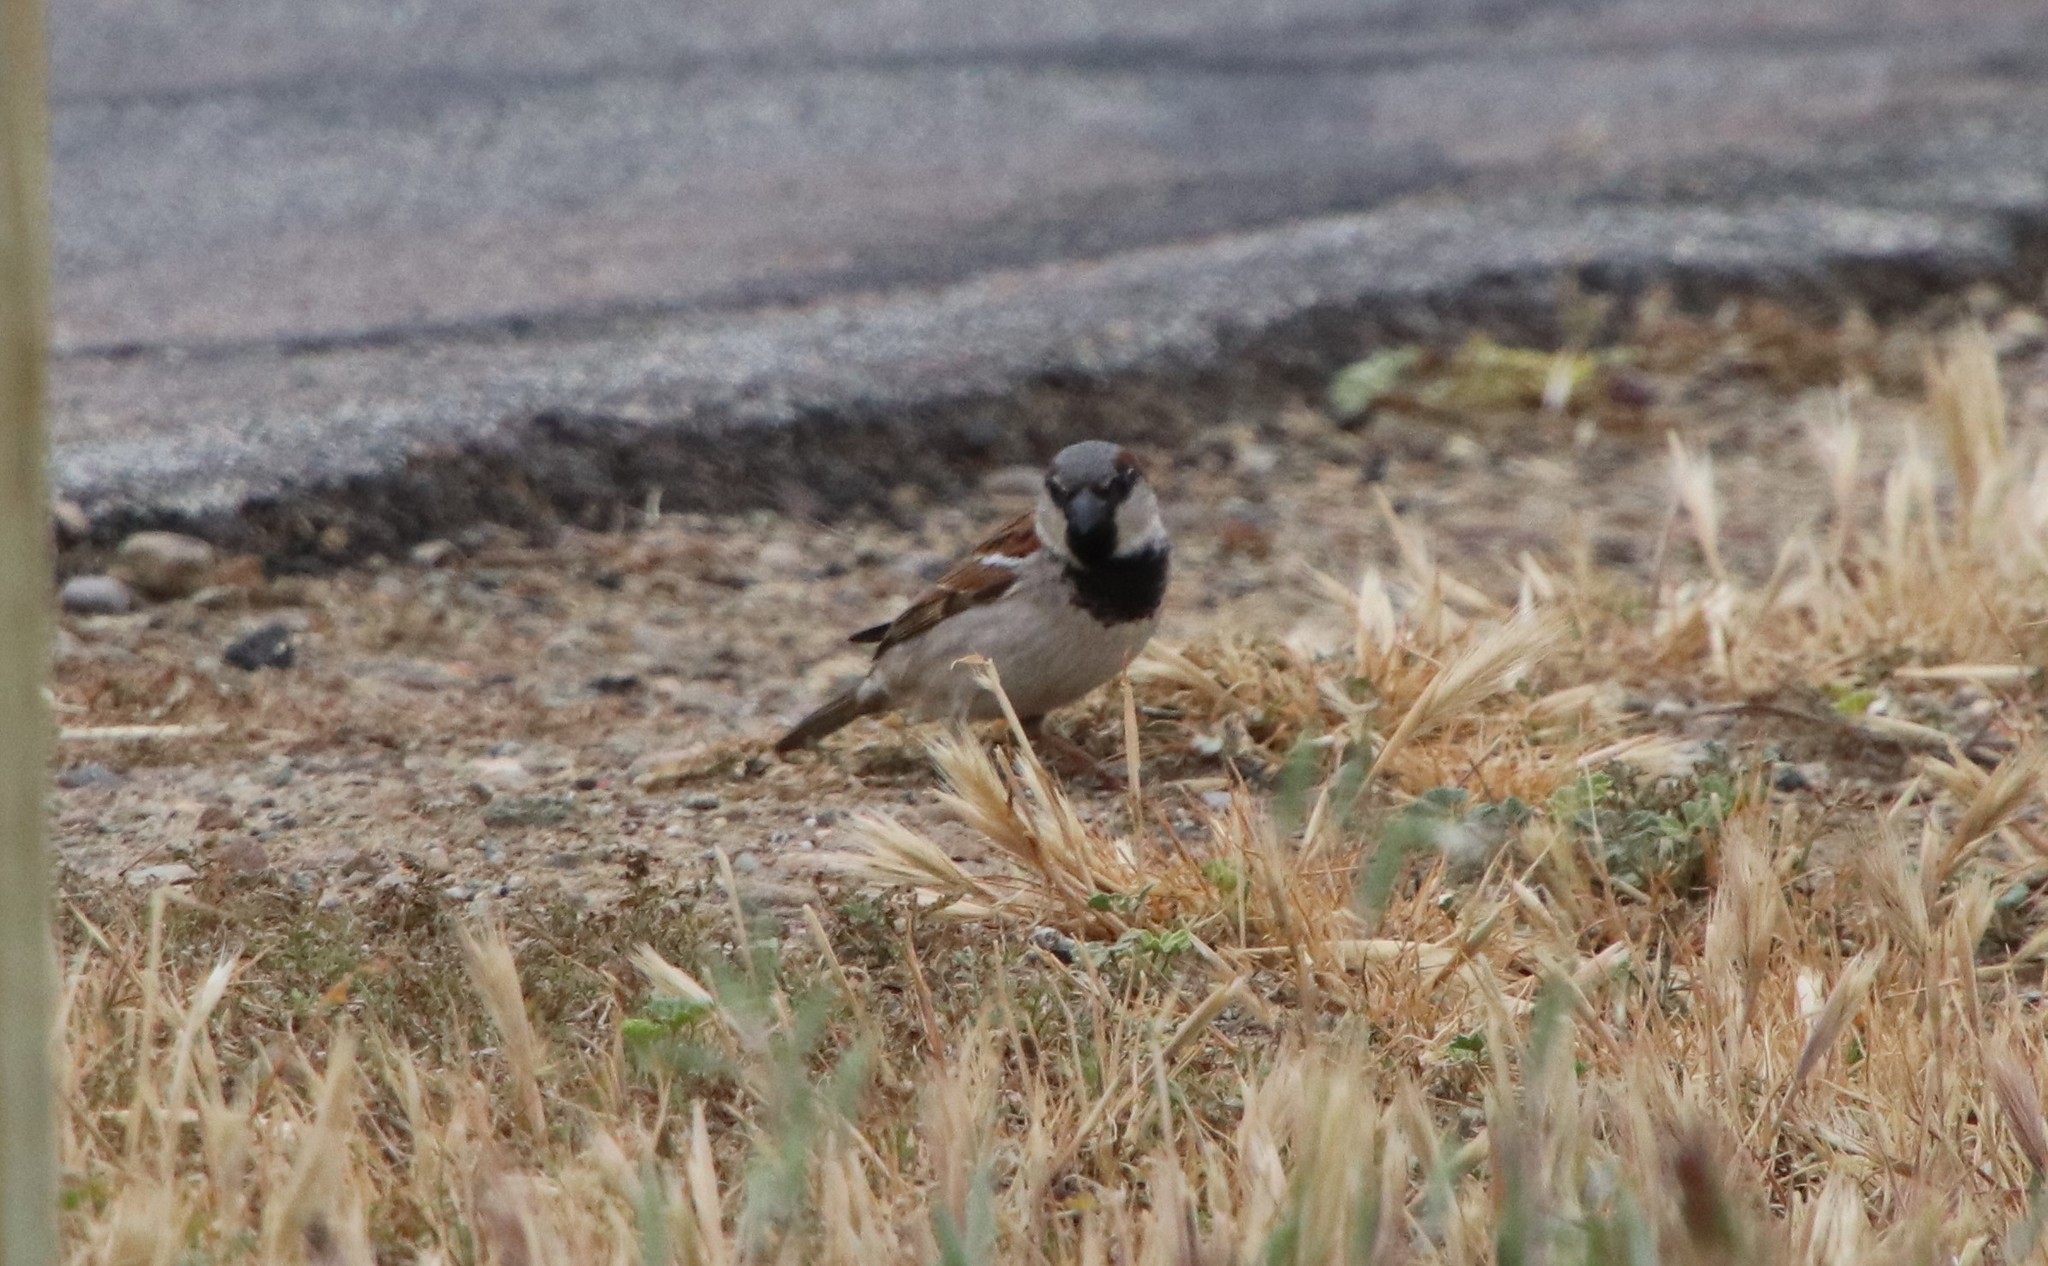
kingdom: Animalia
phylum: Chordata
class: Aves
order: Passeriformes
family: Passeridae
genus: Passer
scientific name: Passer domesticus
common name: House sparrow
